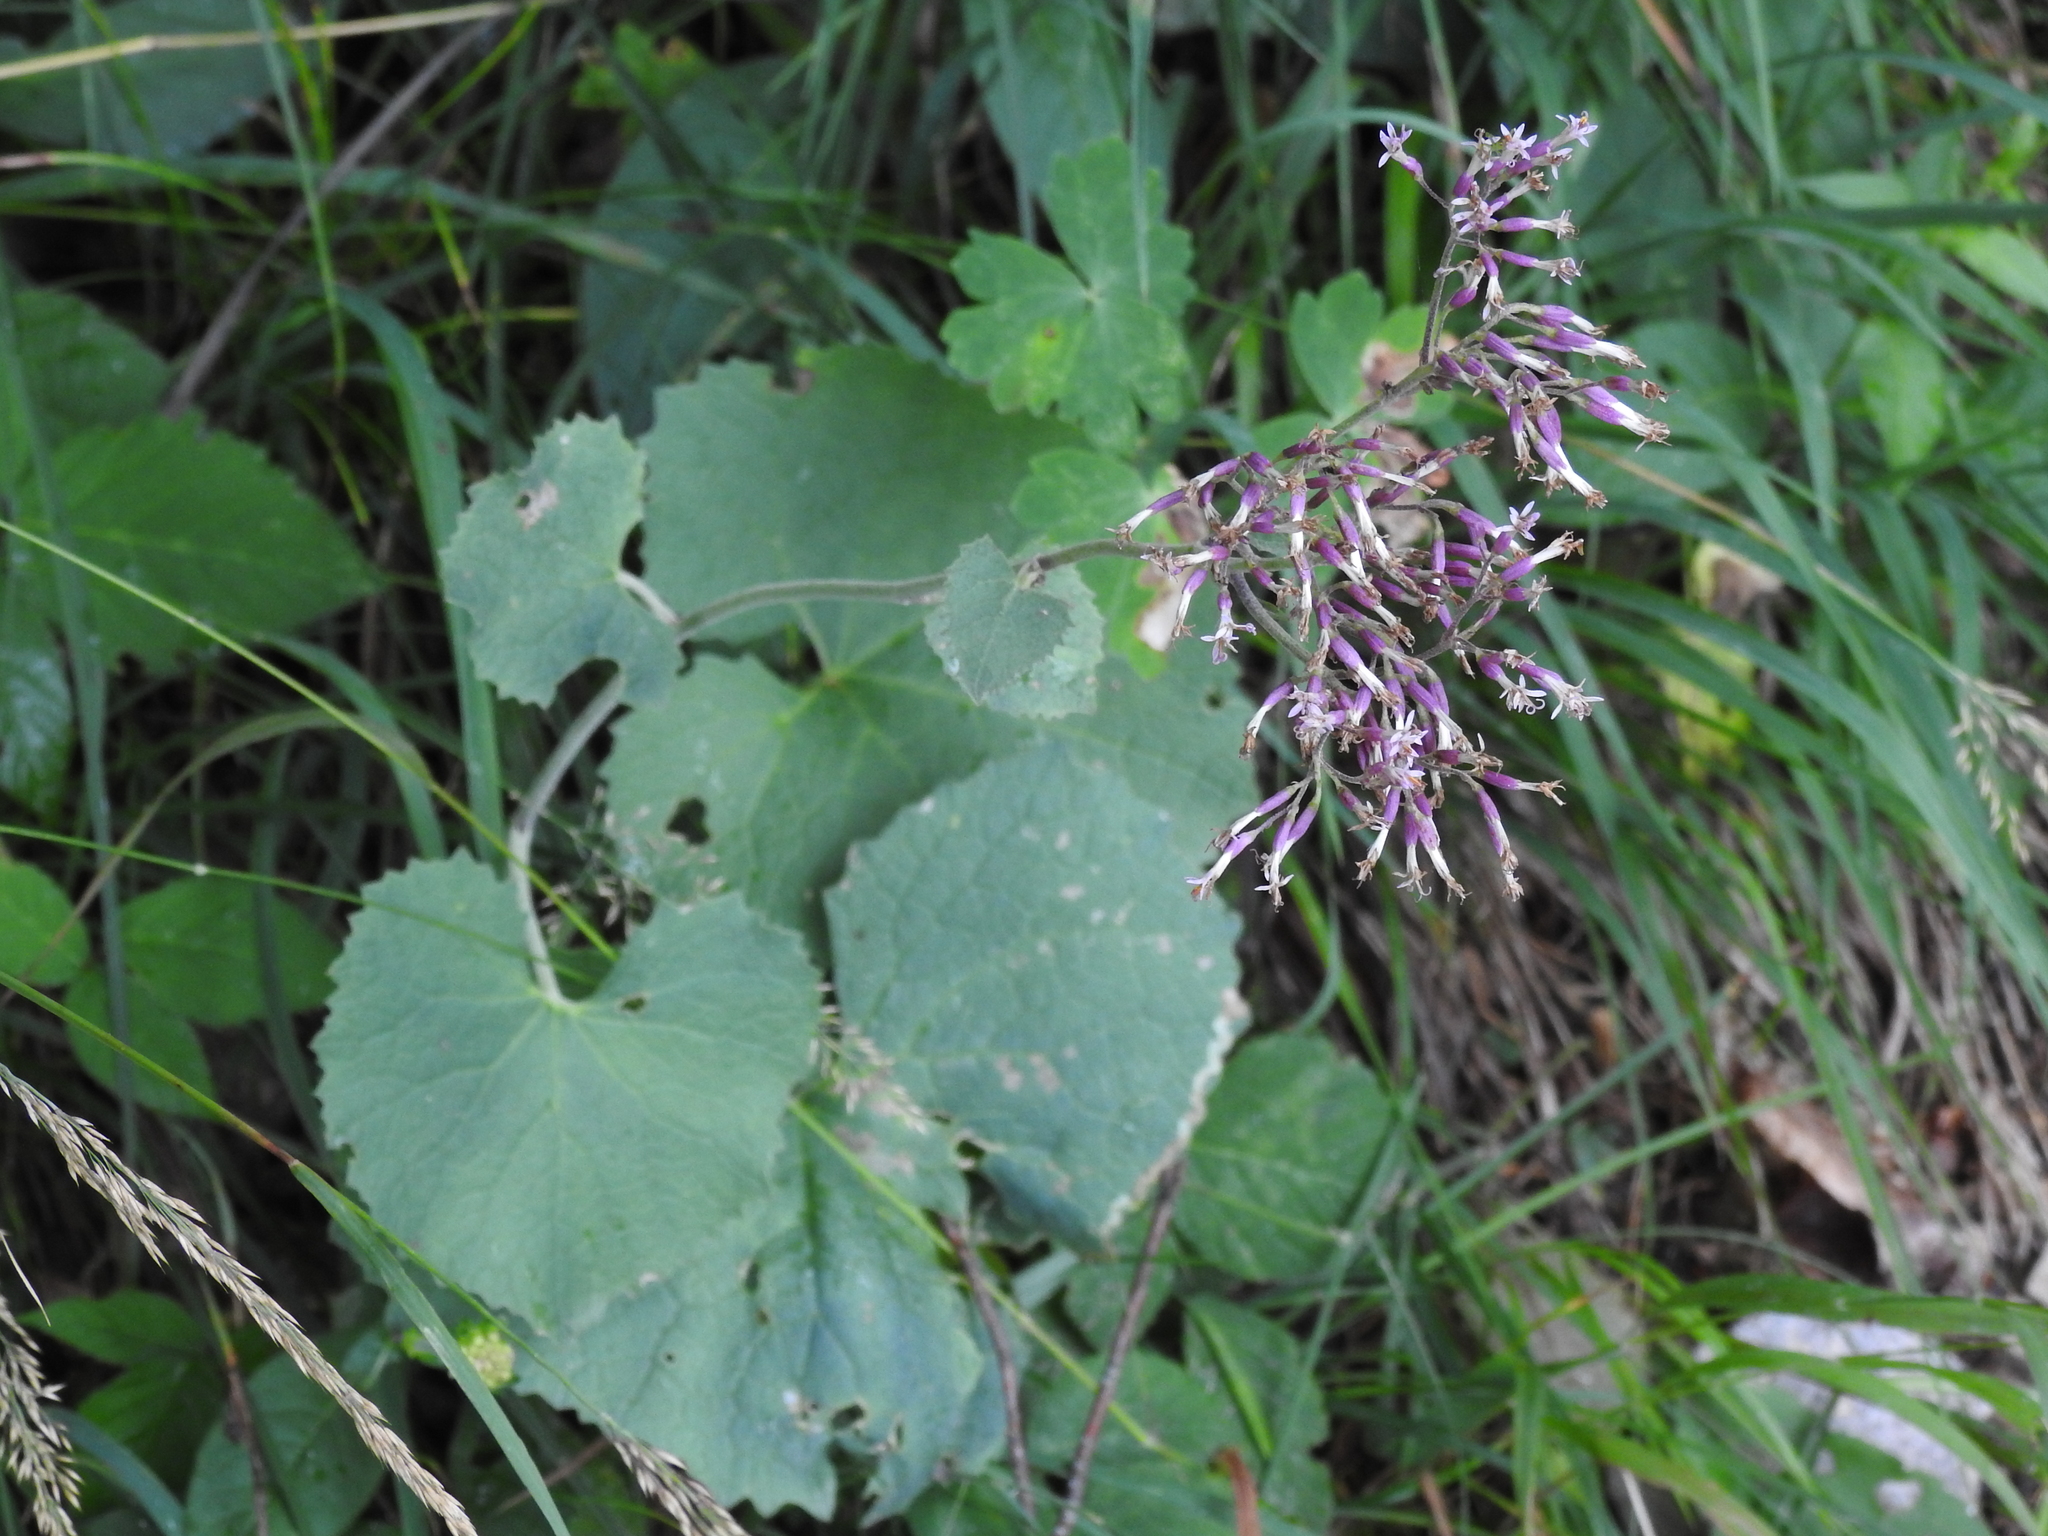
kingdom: Plantae
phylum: Tracheophyta
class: Magnoliopsida
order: Asterales
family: Asteraceae
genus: Adenostyles
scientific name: Adenostyles alpina
